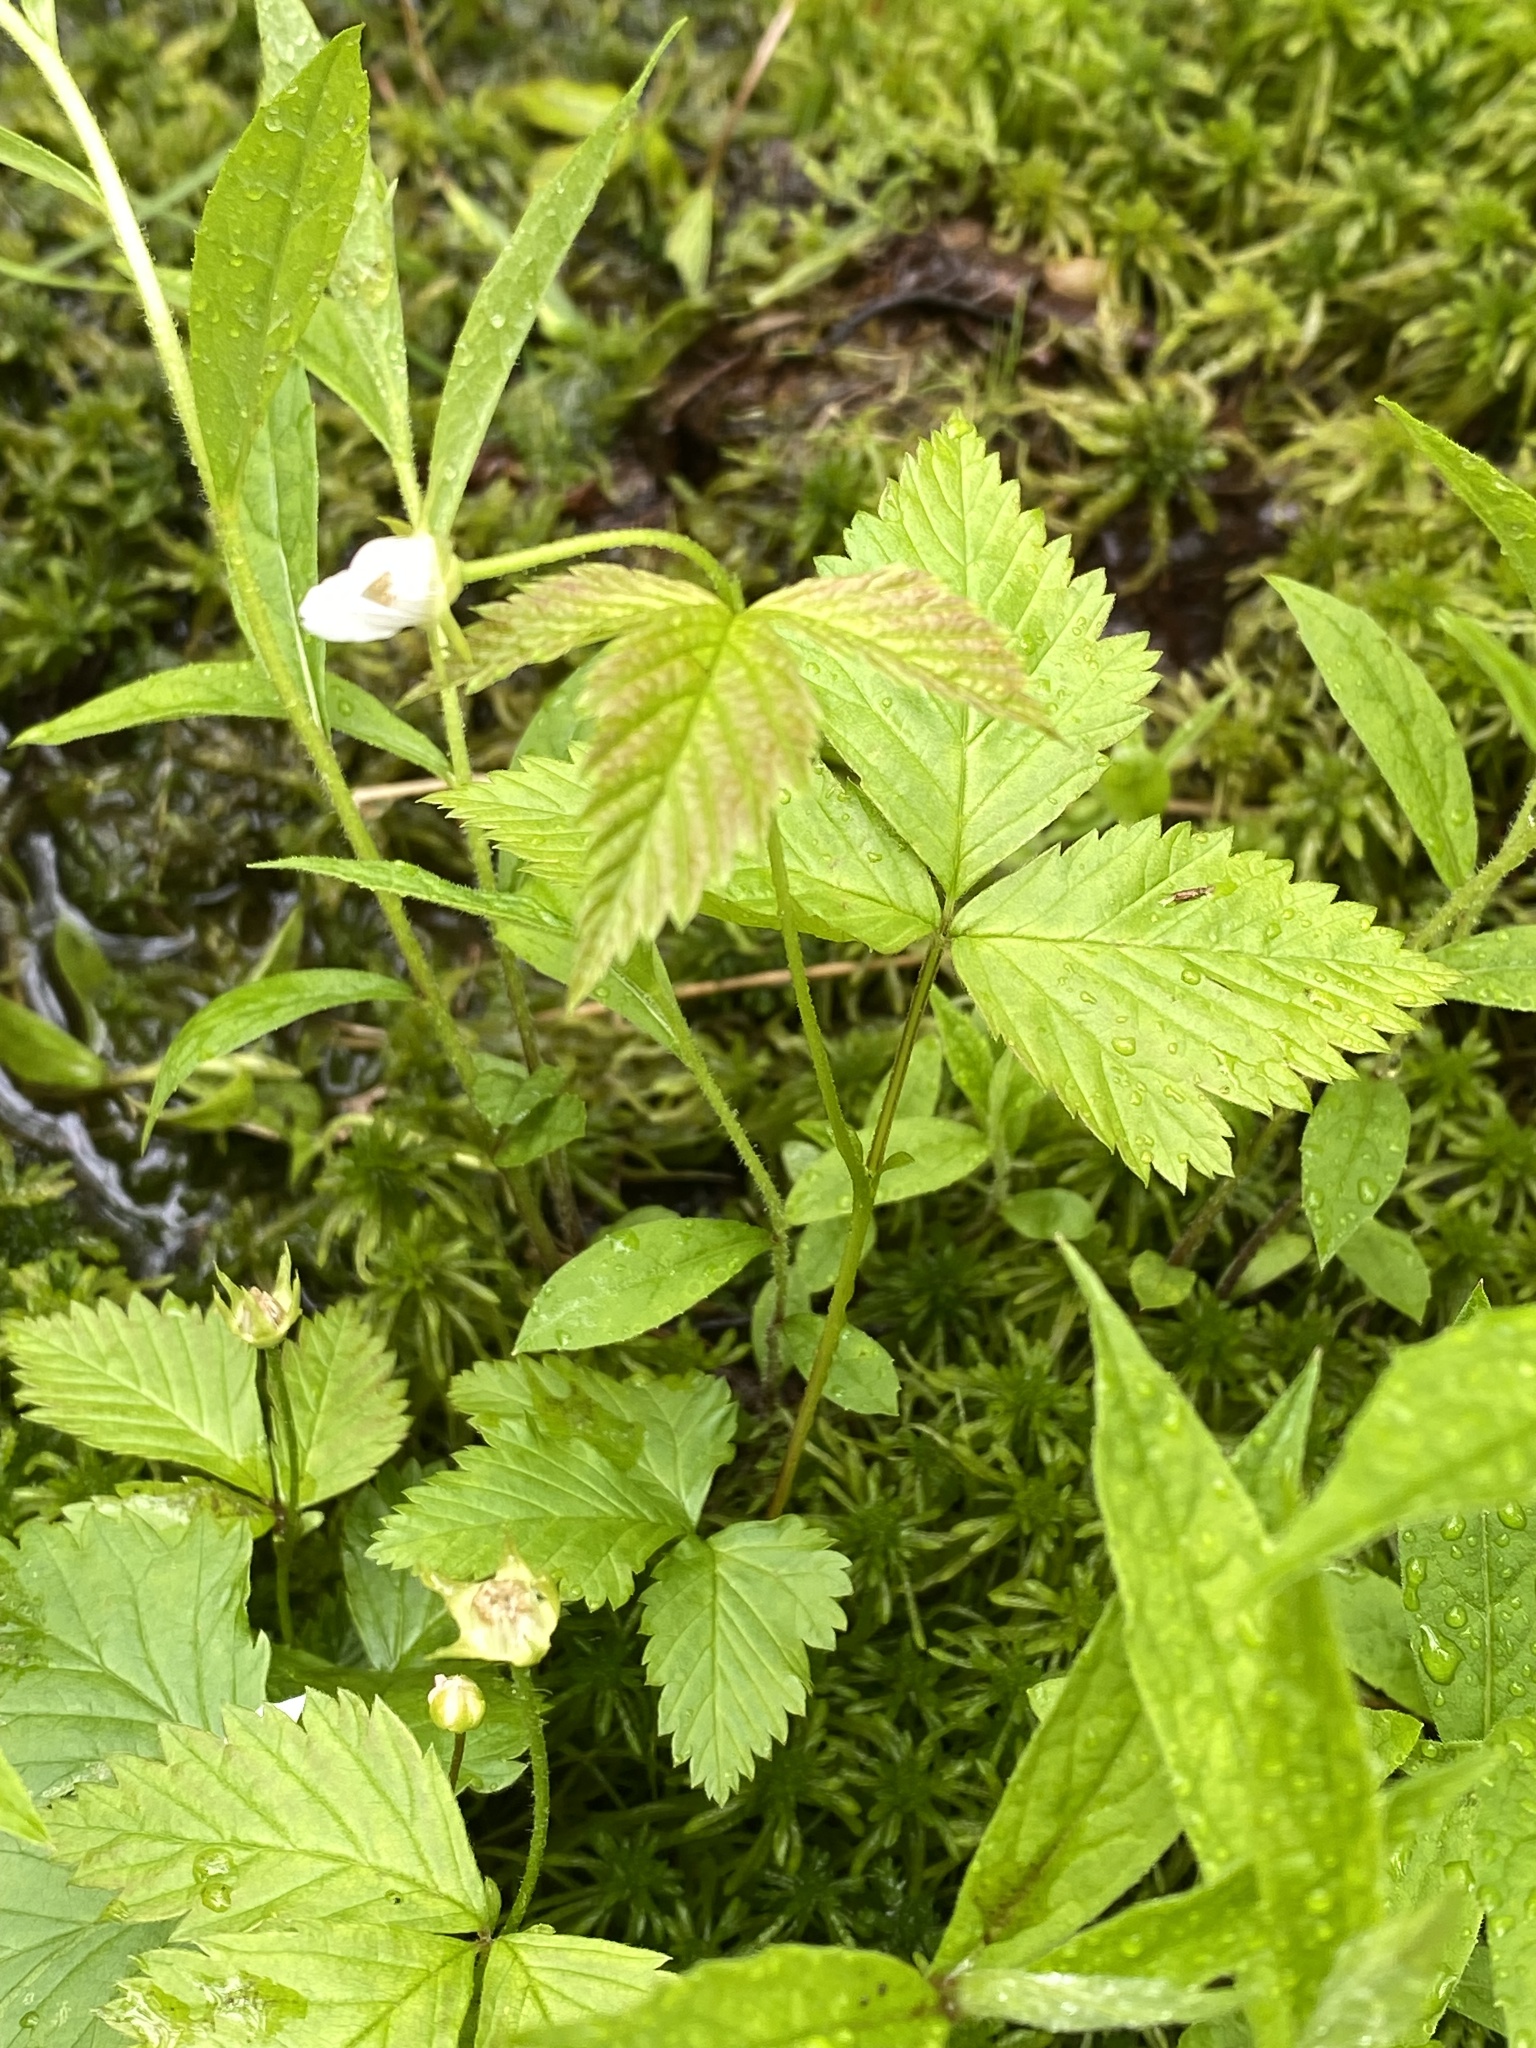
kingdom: Plantae
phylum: Tracheophyta
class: Magnoliopsida
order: Rosales
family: Rosaceae
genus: Rubus
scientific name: Rubus pubescens
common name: Dwarf raspberry
